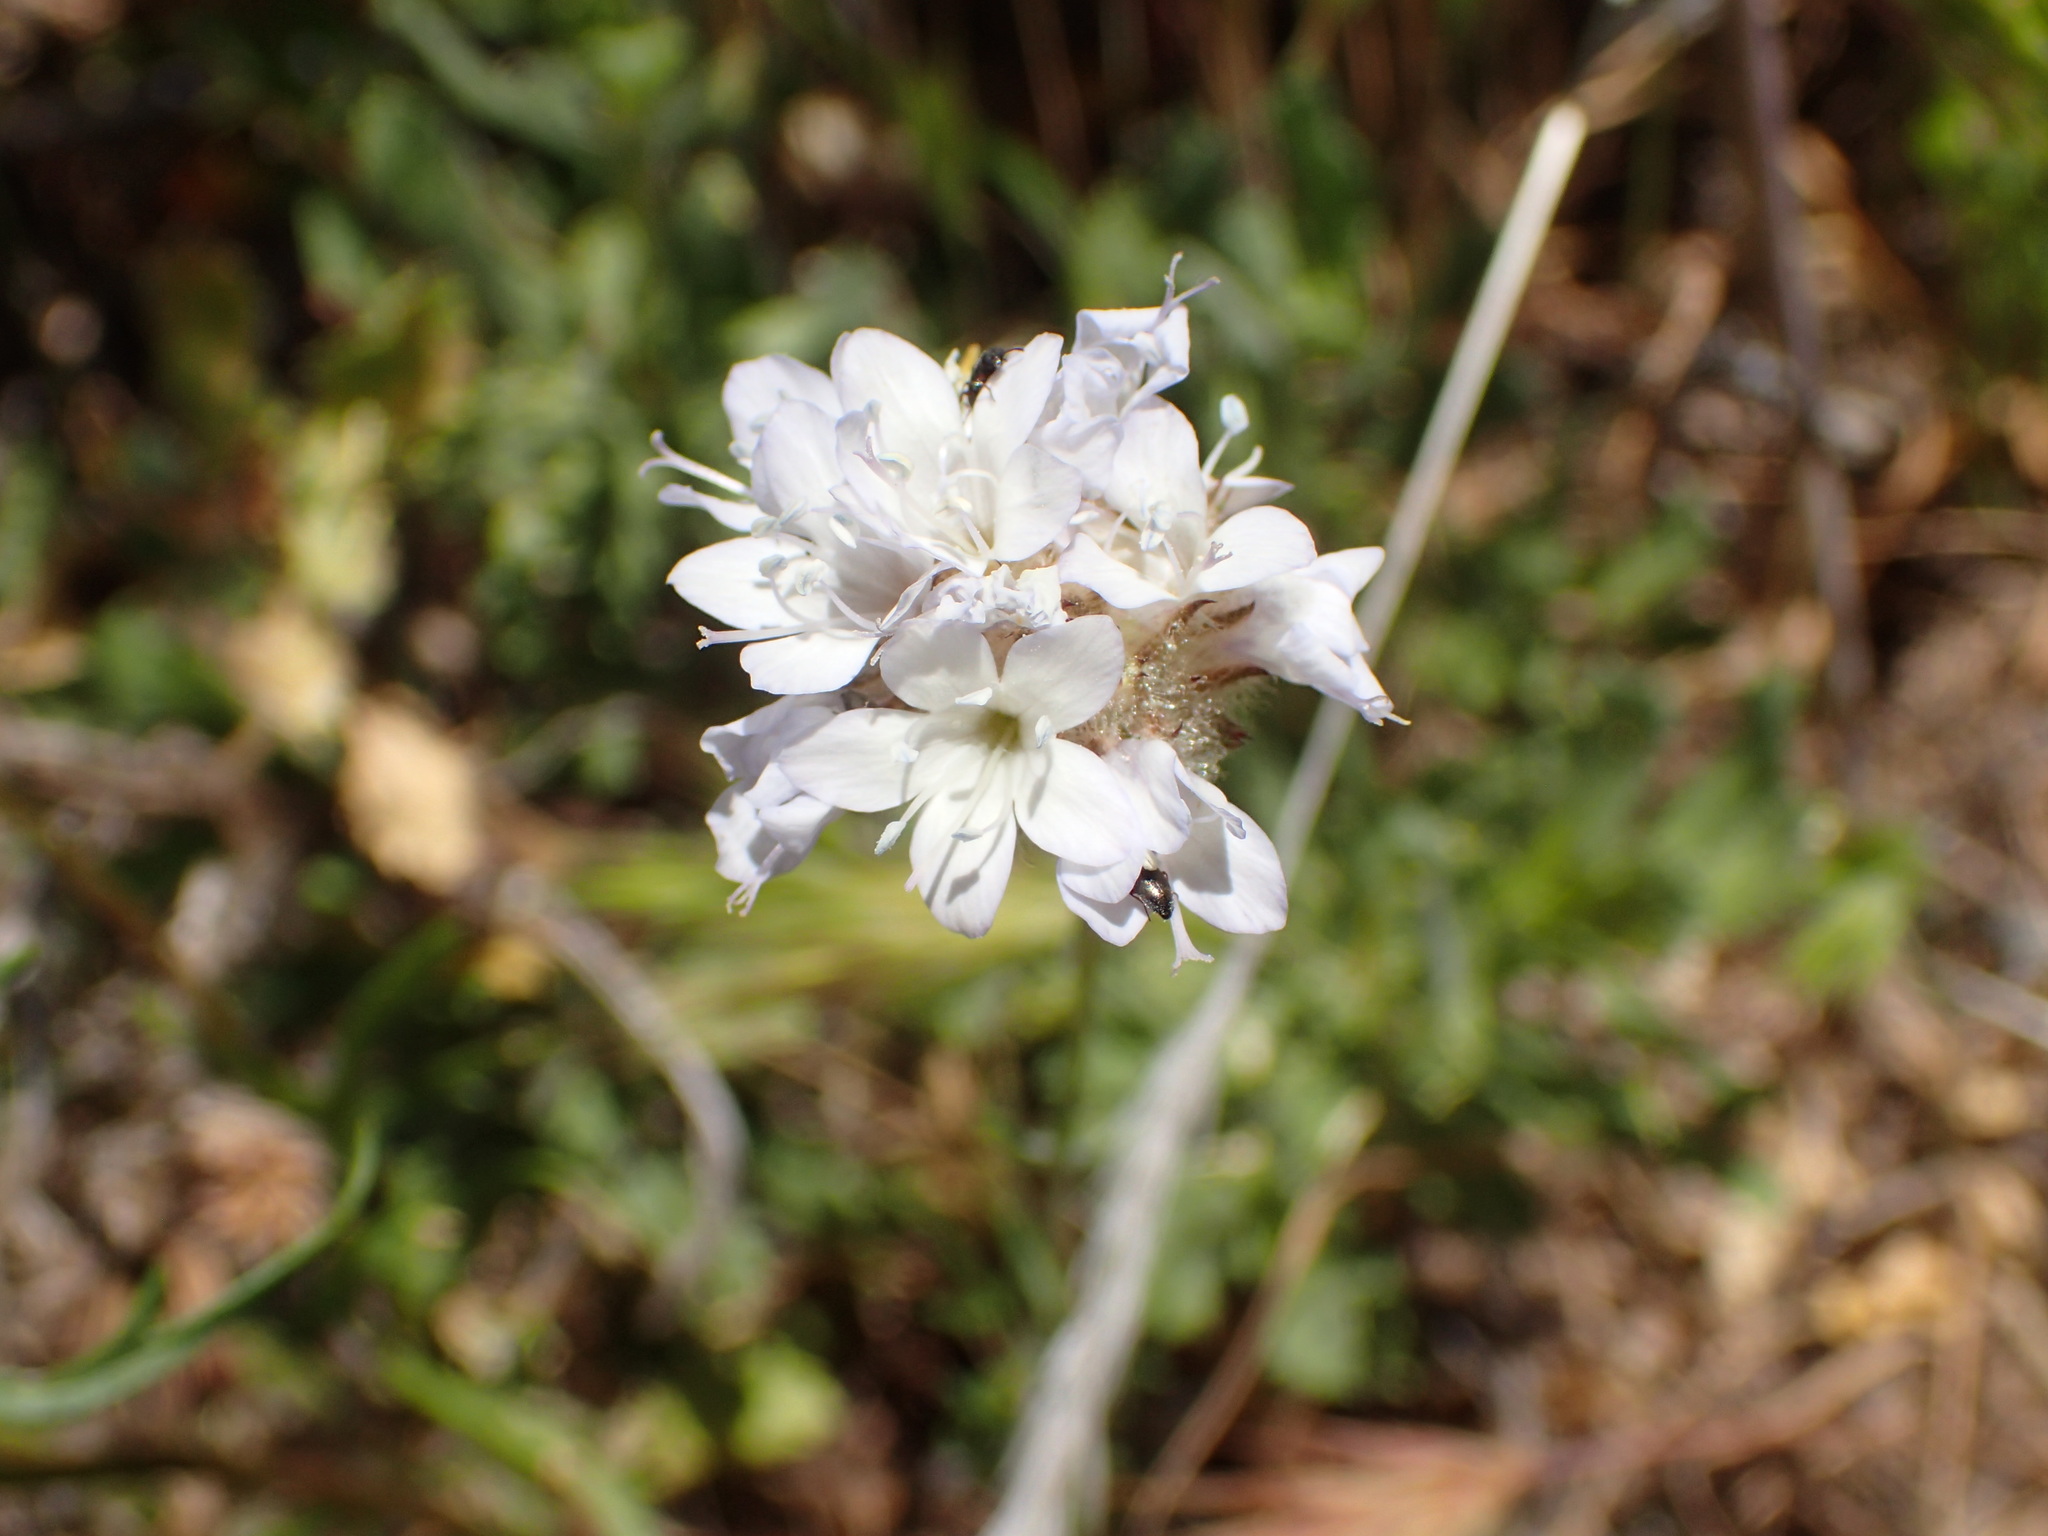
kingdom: Plantae
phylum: Tracheophyta
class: Magnoliopsida
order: Ericales
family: Polemoniaceae
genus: Gilia
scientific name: Gilia capitata
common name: Bluehead gilia
